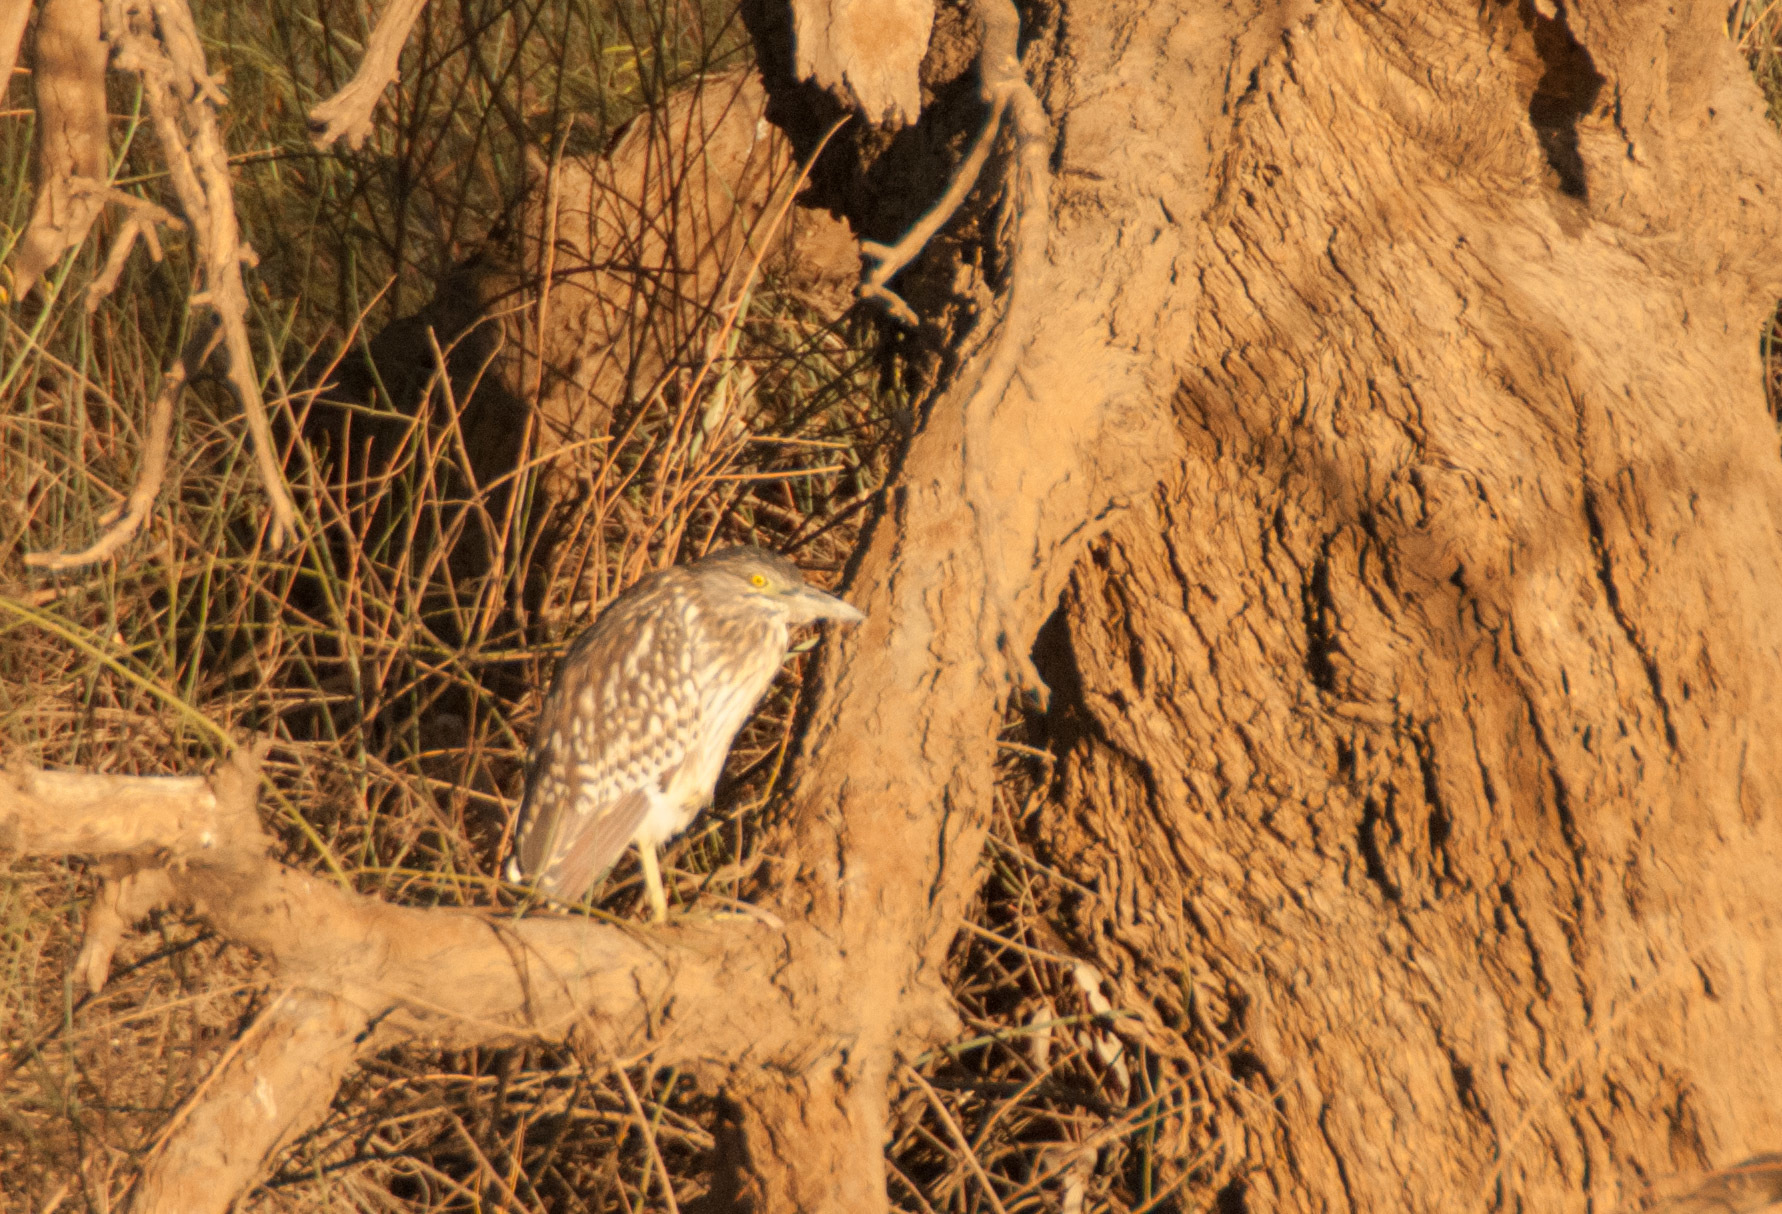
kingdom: Animalia
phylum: Chordata
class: Aves
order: Pelecaniformes
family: Ardeidae
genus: Nycticorax
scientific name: Nycticorax caledonicus
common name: Rufous night-heron
